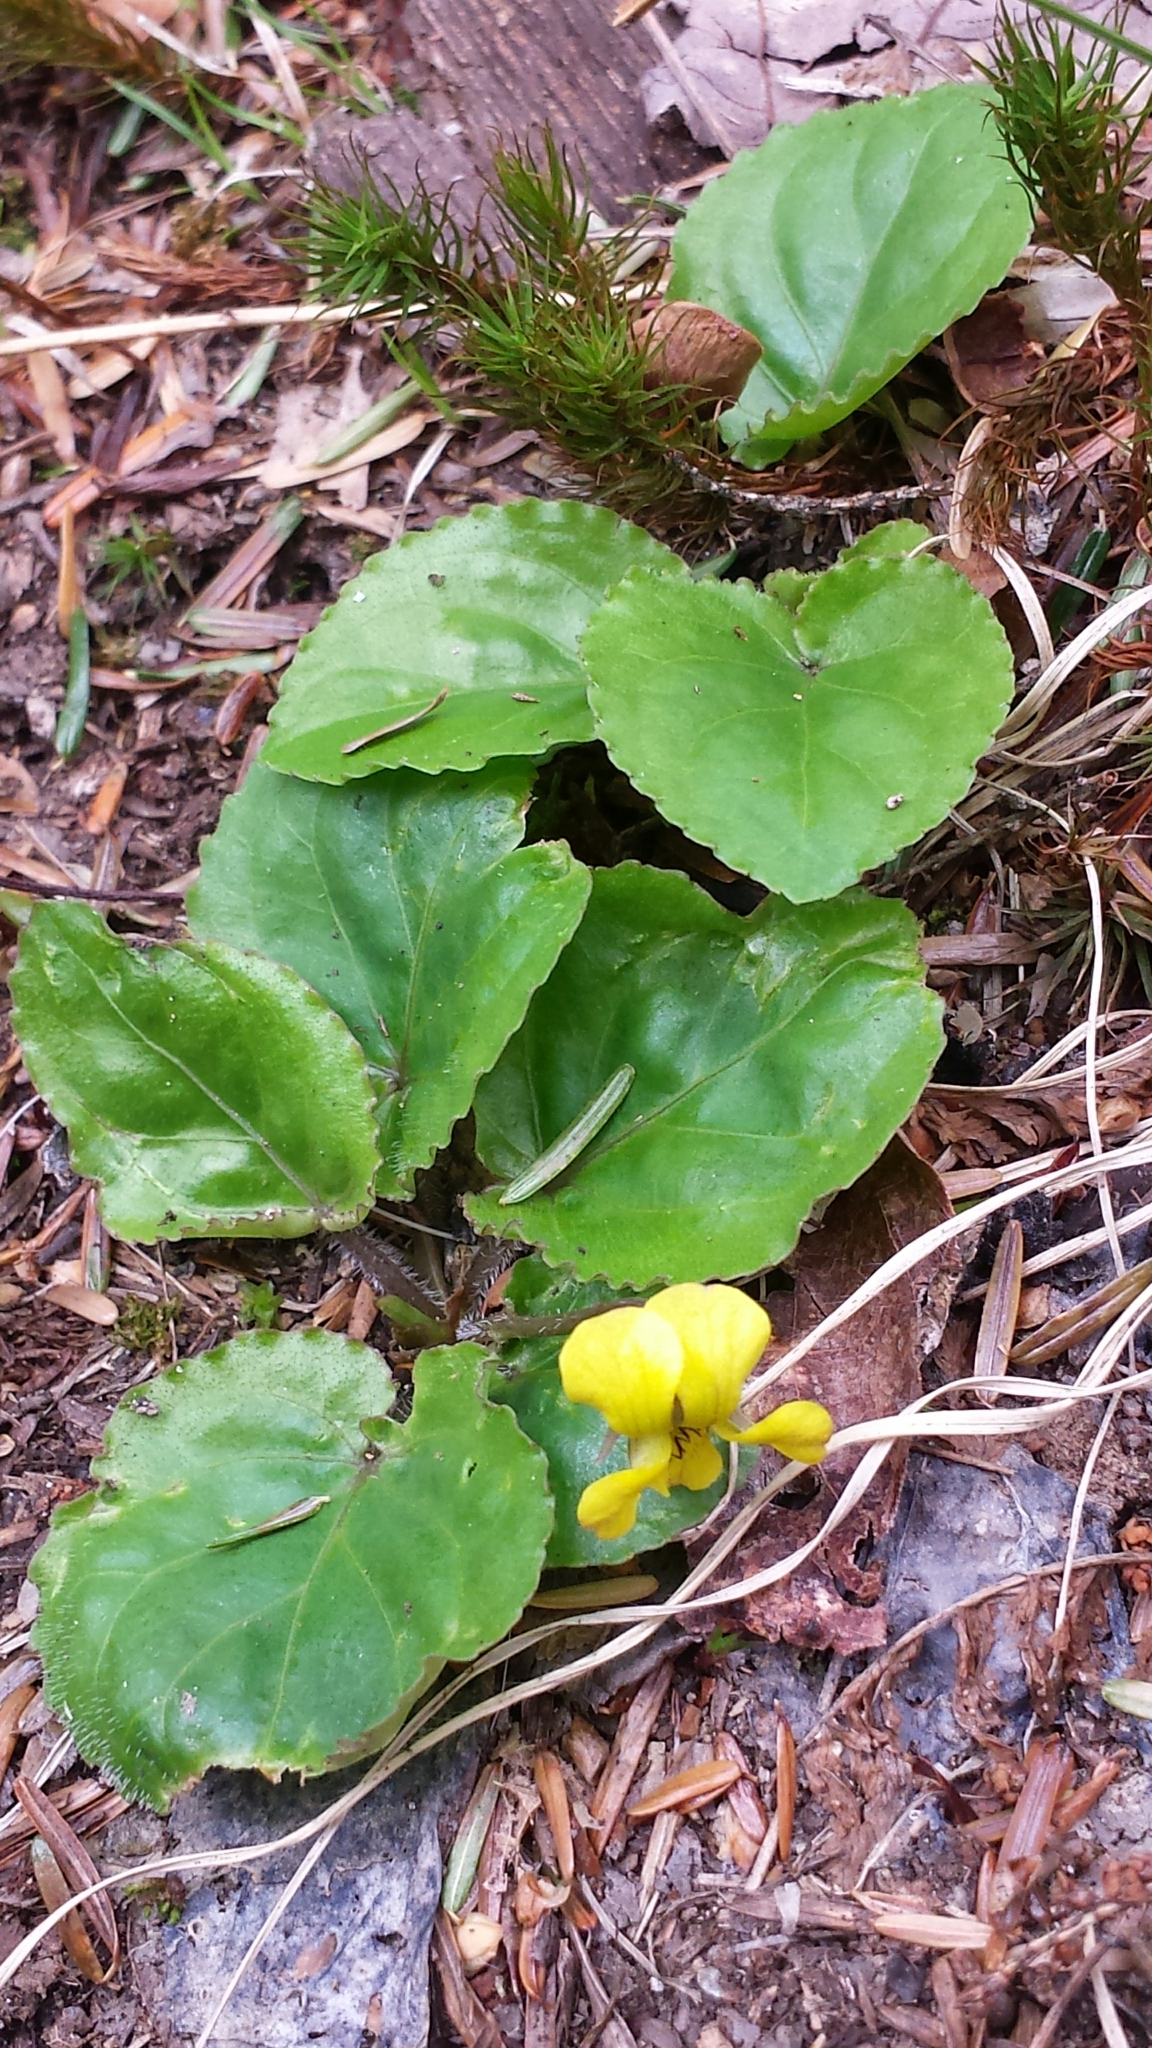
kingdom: Plantae
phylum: Tracheophyta
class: Magnoliopsida
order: Malpighiales
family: Violaceae
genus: Viola
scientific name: Viola rotundifolia
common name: Early yellow violet
